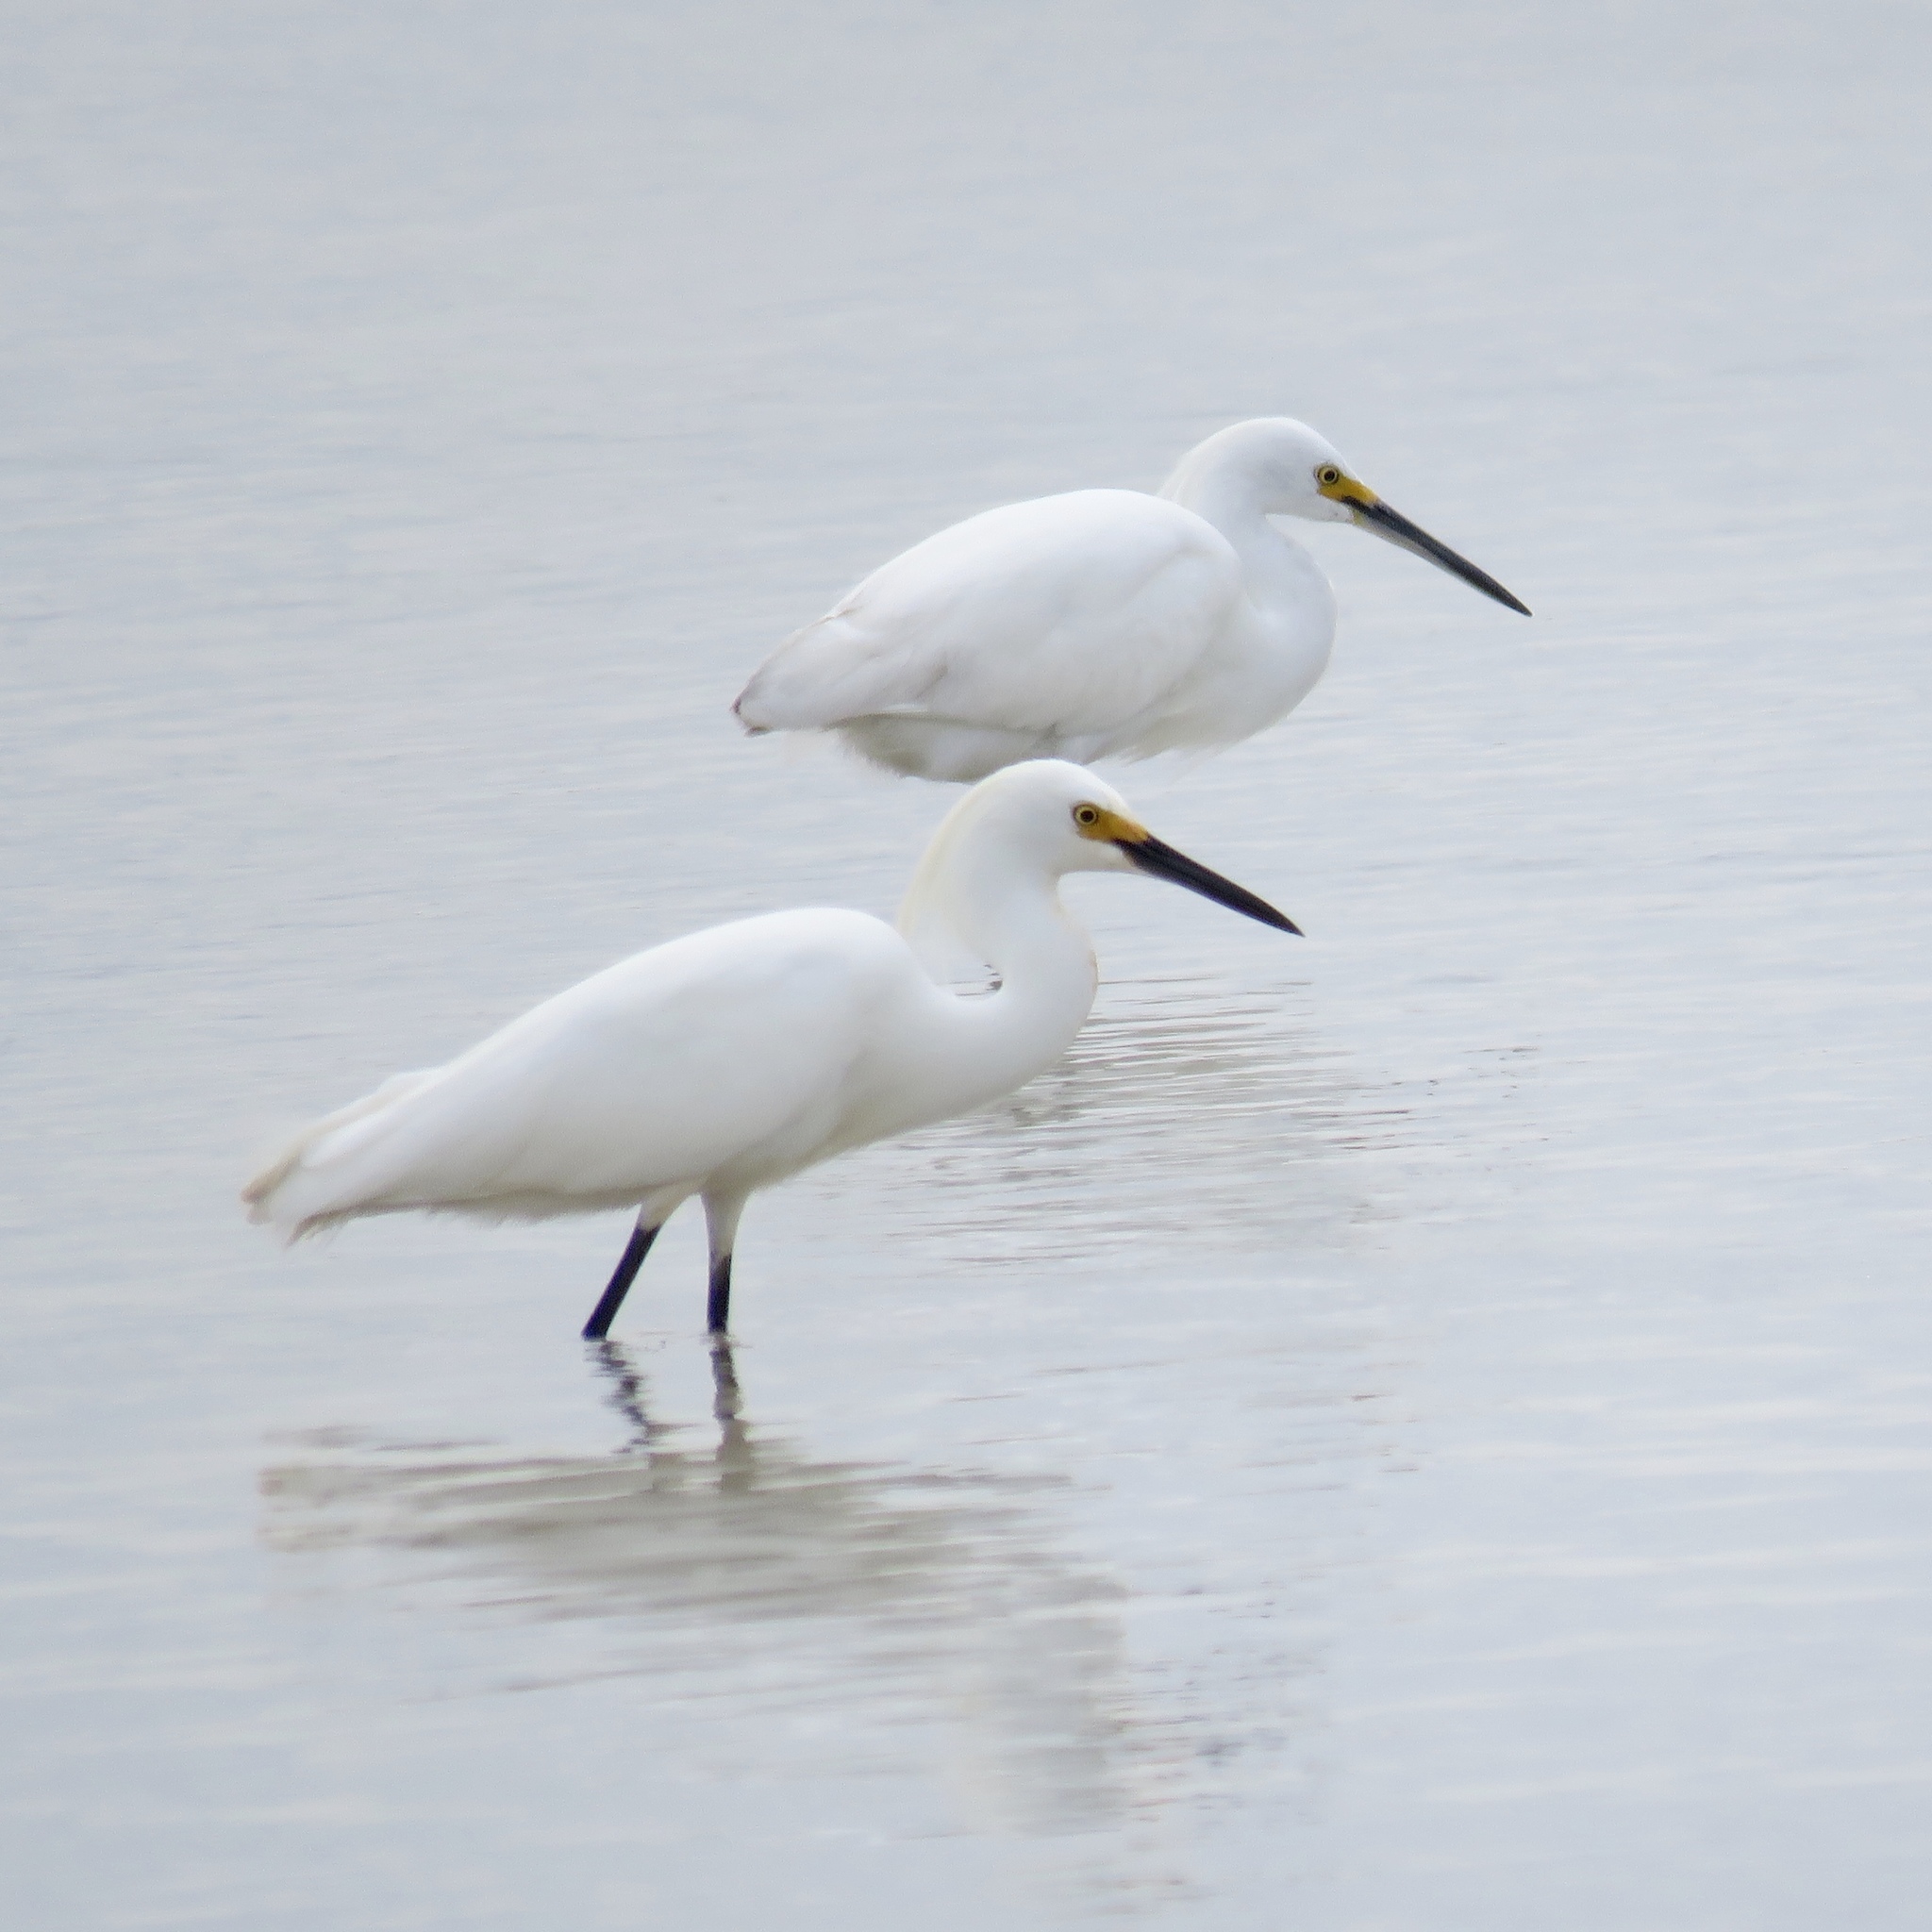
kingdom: Animalia
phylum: Chordata
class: Aves
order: Pelecaniformes
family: Ardeidae
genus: Egretta
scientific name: Egretta thula
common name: Snowy egret
